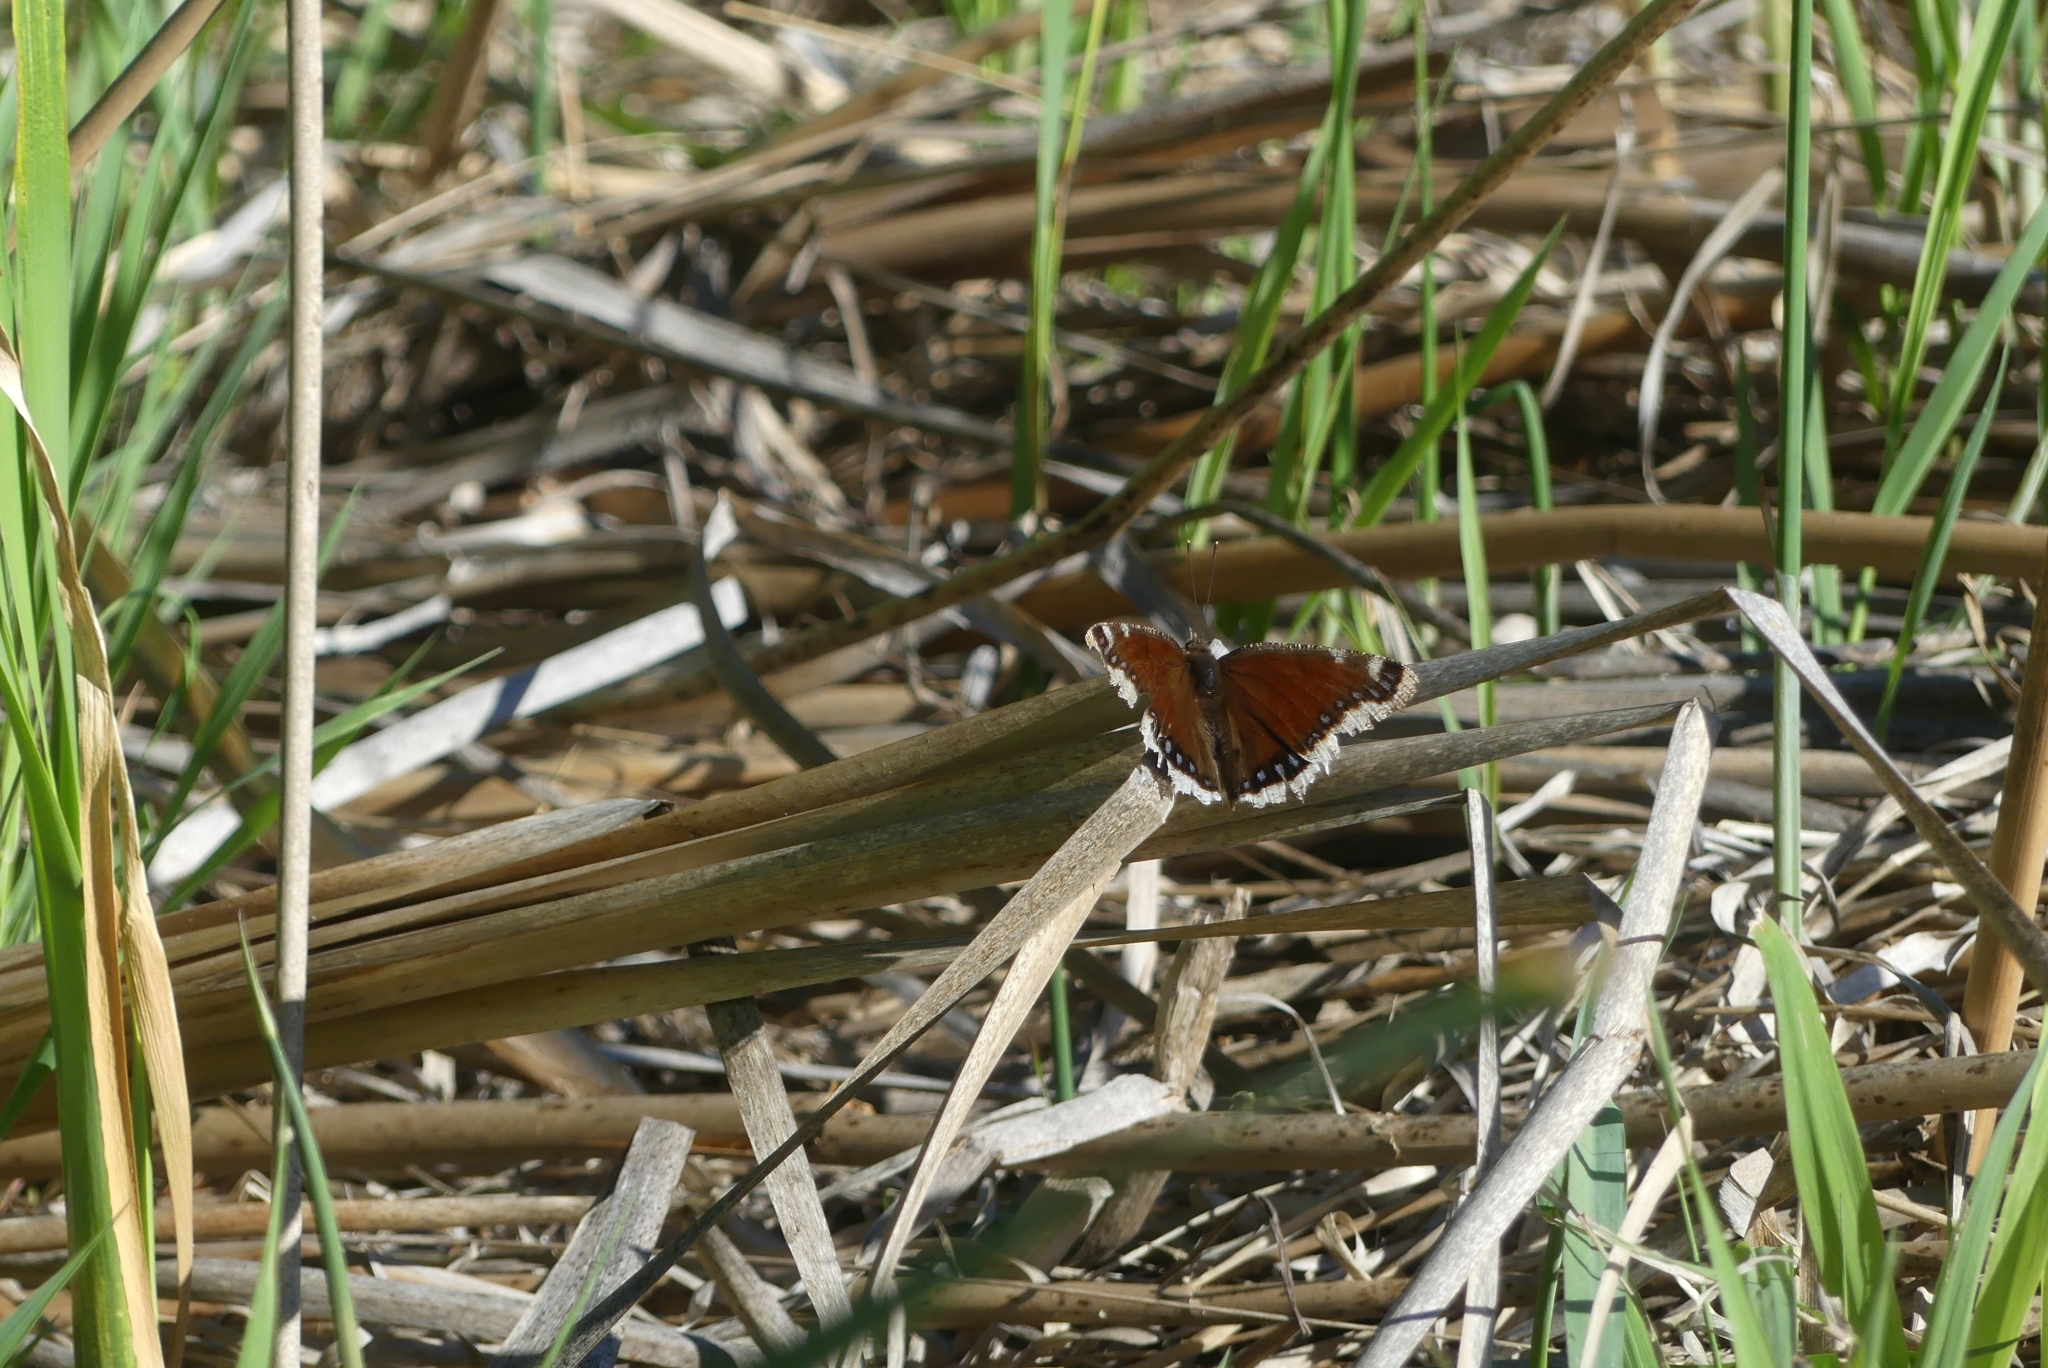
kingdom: Animalia
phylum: Arthropoda
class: Insecta
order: Lepidoptera
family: Nymphalidae
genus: Nymphalis
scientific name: Nymphalis antiopa
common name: Camberwell beauty
